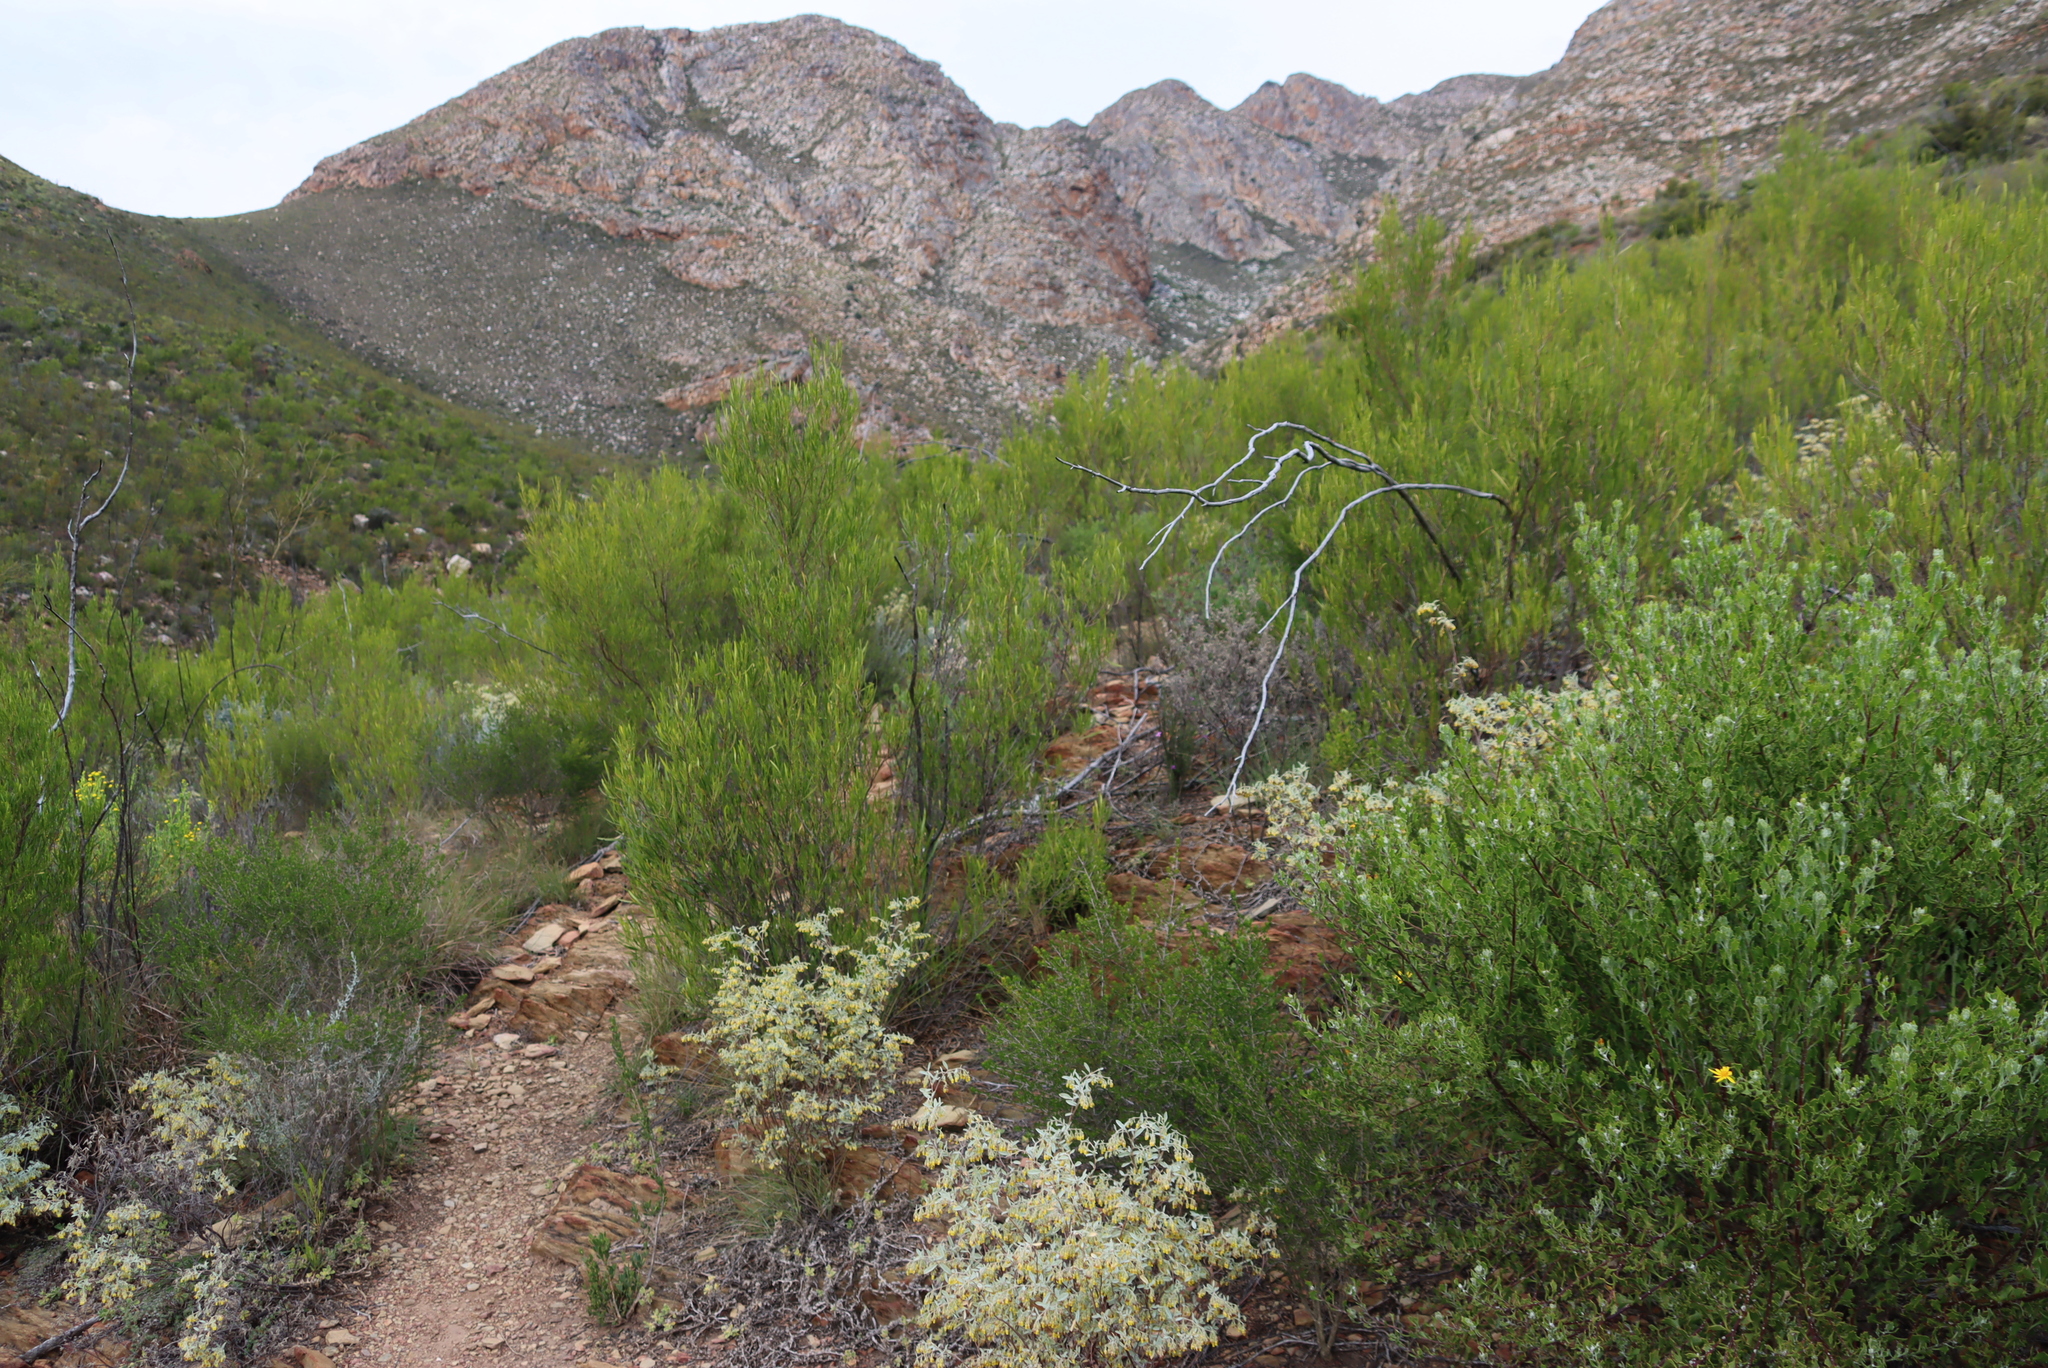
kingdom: Plantae
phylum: Tracheophyta
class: Magnoliopsida
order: Sapindales
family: Sapindaceae
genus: Dodonaea
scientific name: Dodonaea viscosa
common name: Hopbush
